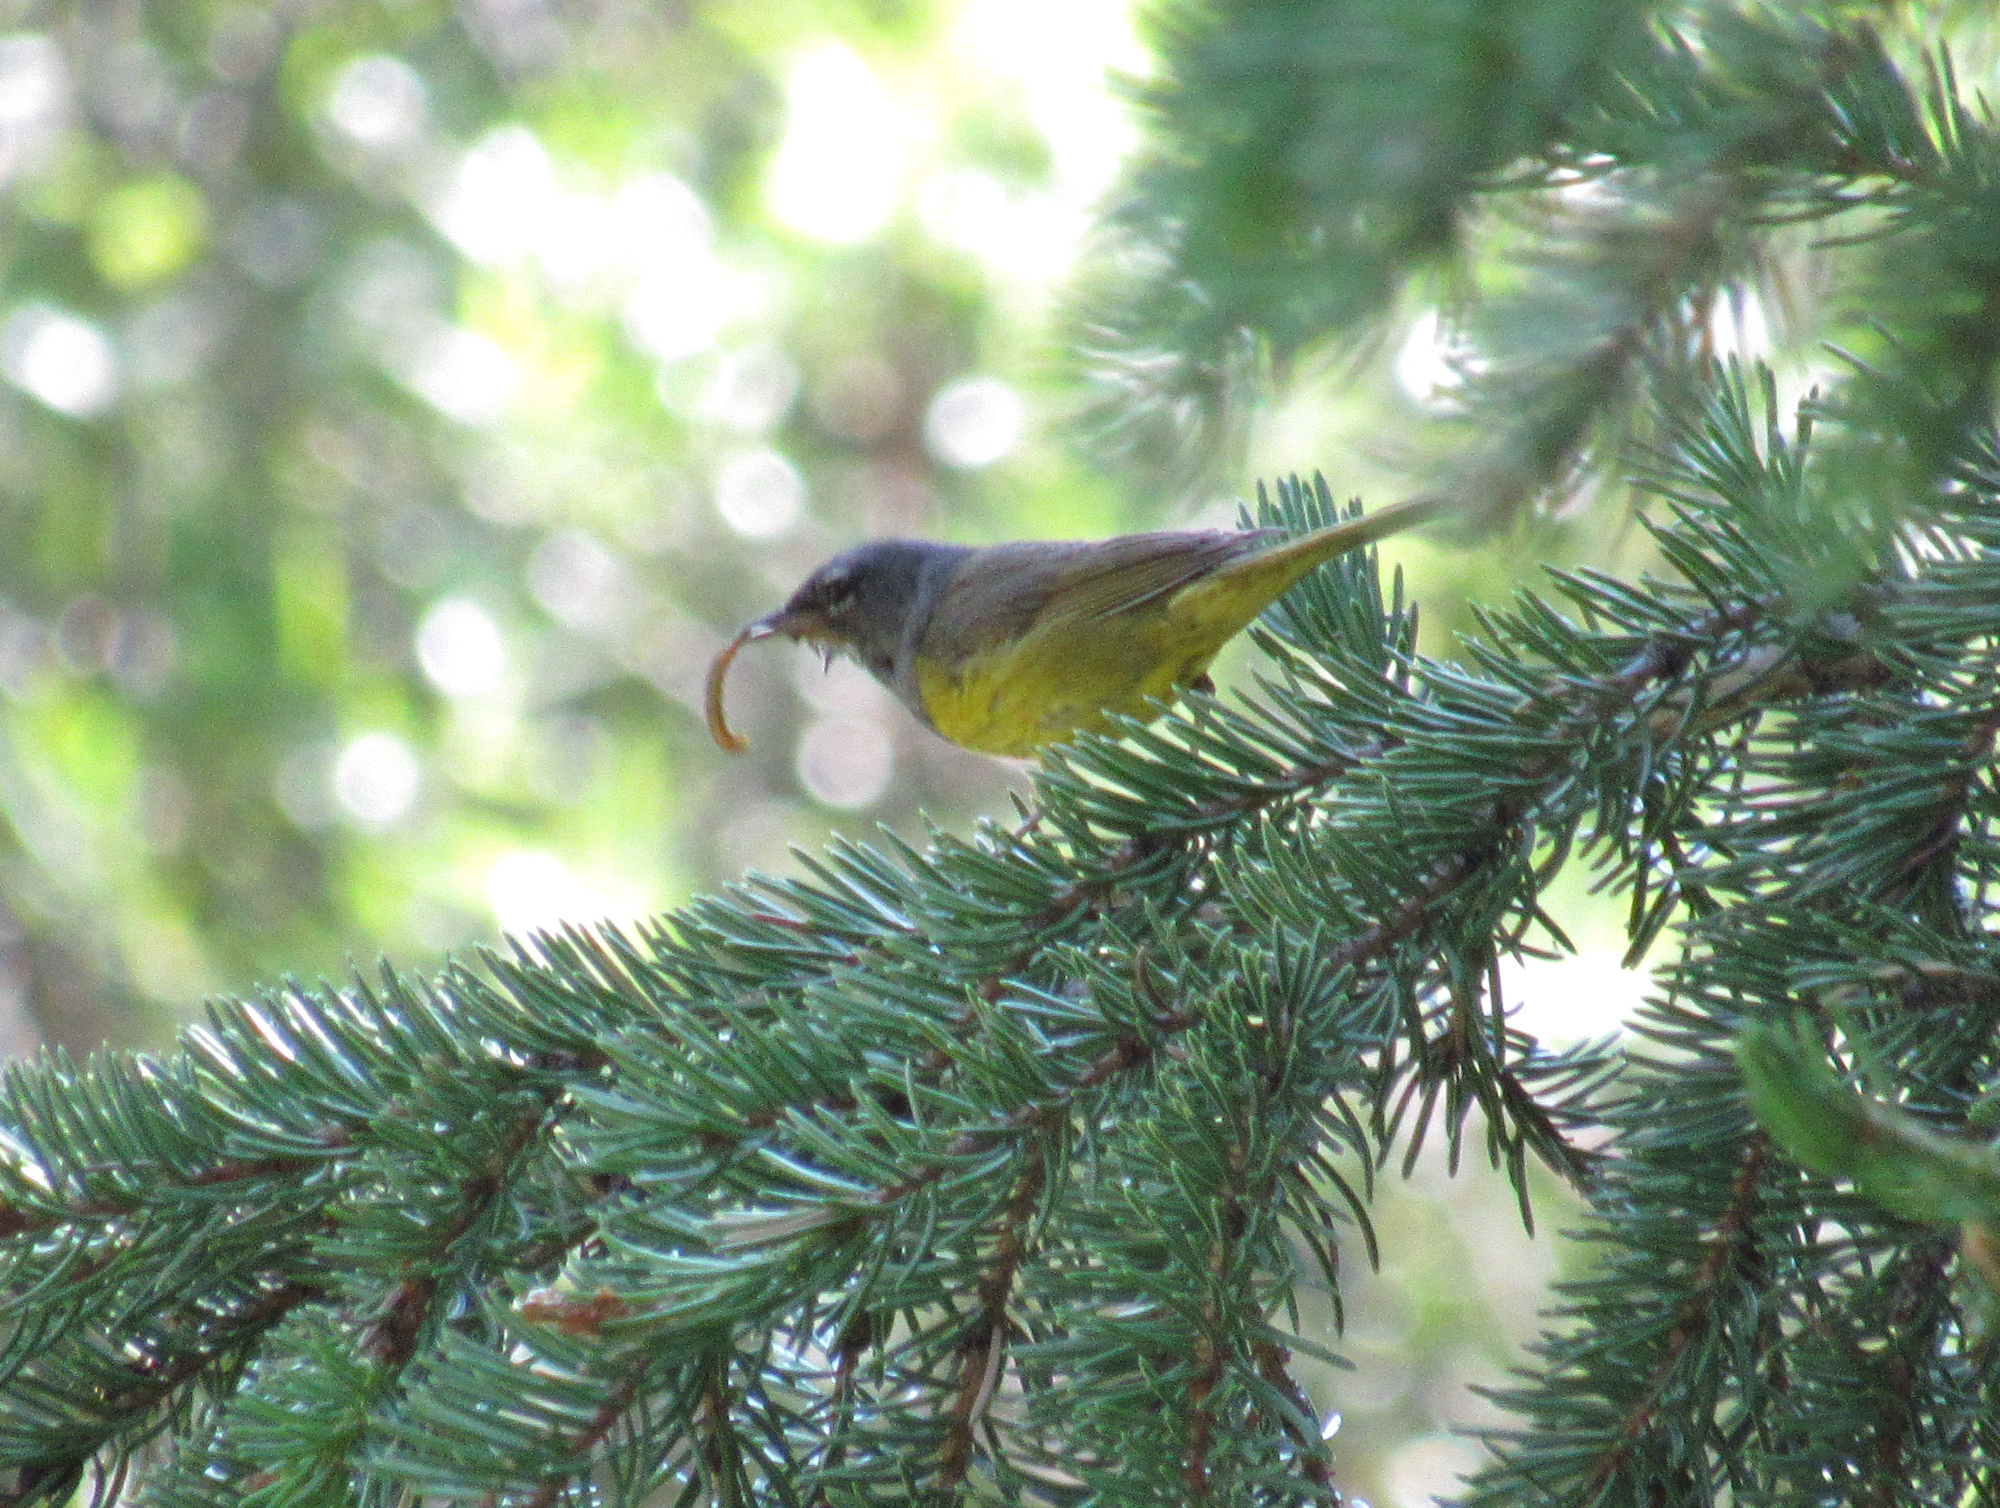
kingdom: Animalia
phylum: Chordata
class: Aves
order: Passeriformes
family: Parulidae
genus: Geothlypis
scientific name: Geothlypis tolmiei
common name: Macgillivray's warbler
